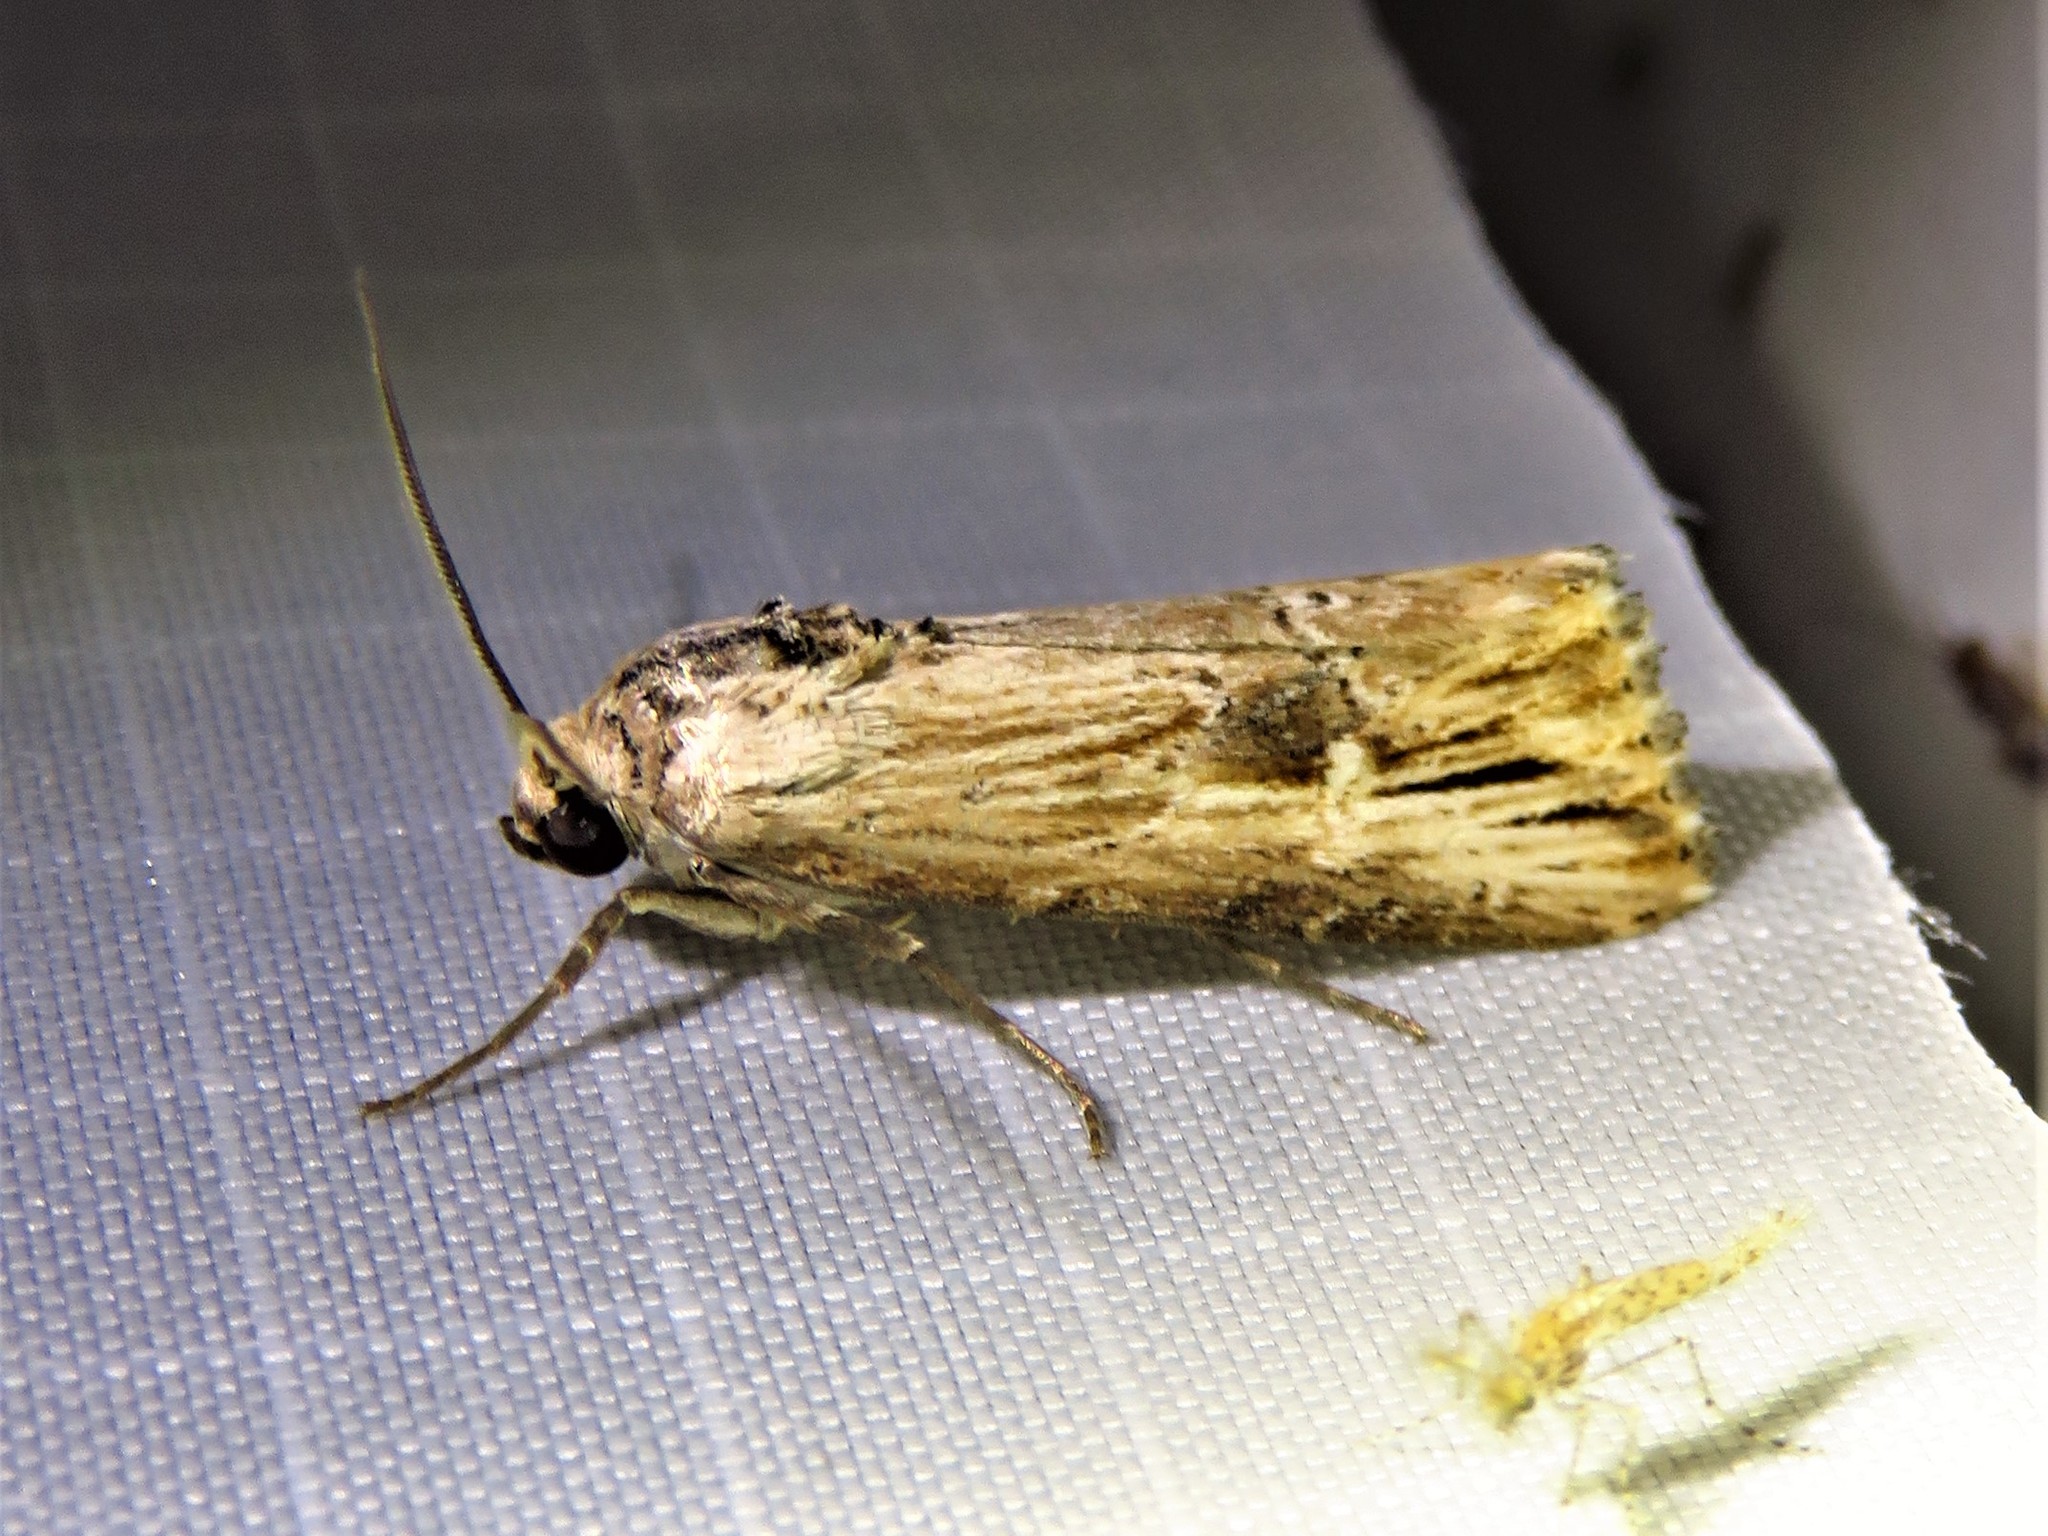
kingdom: Animalia
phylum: Arthropoda
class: Insecta
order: Lepidoptera
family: Noctuidae
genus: Crambodes
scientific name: Crambodes talidiformis
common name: Verbena moth
